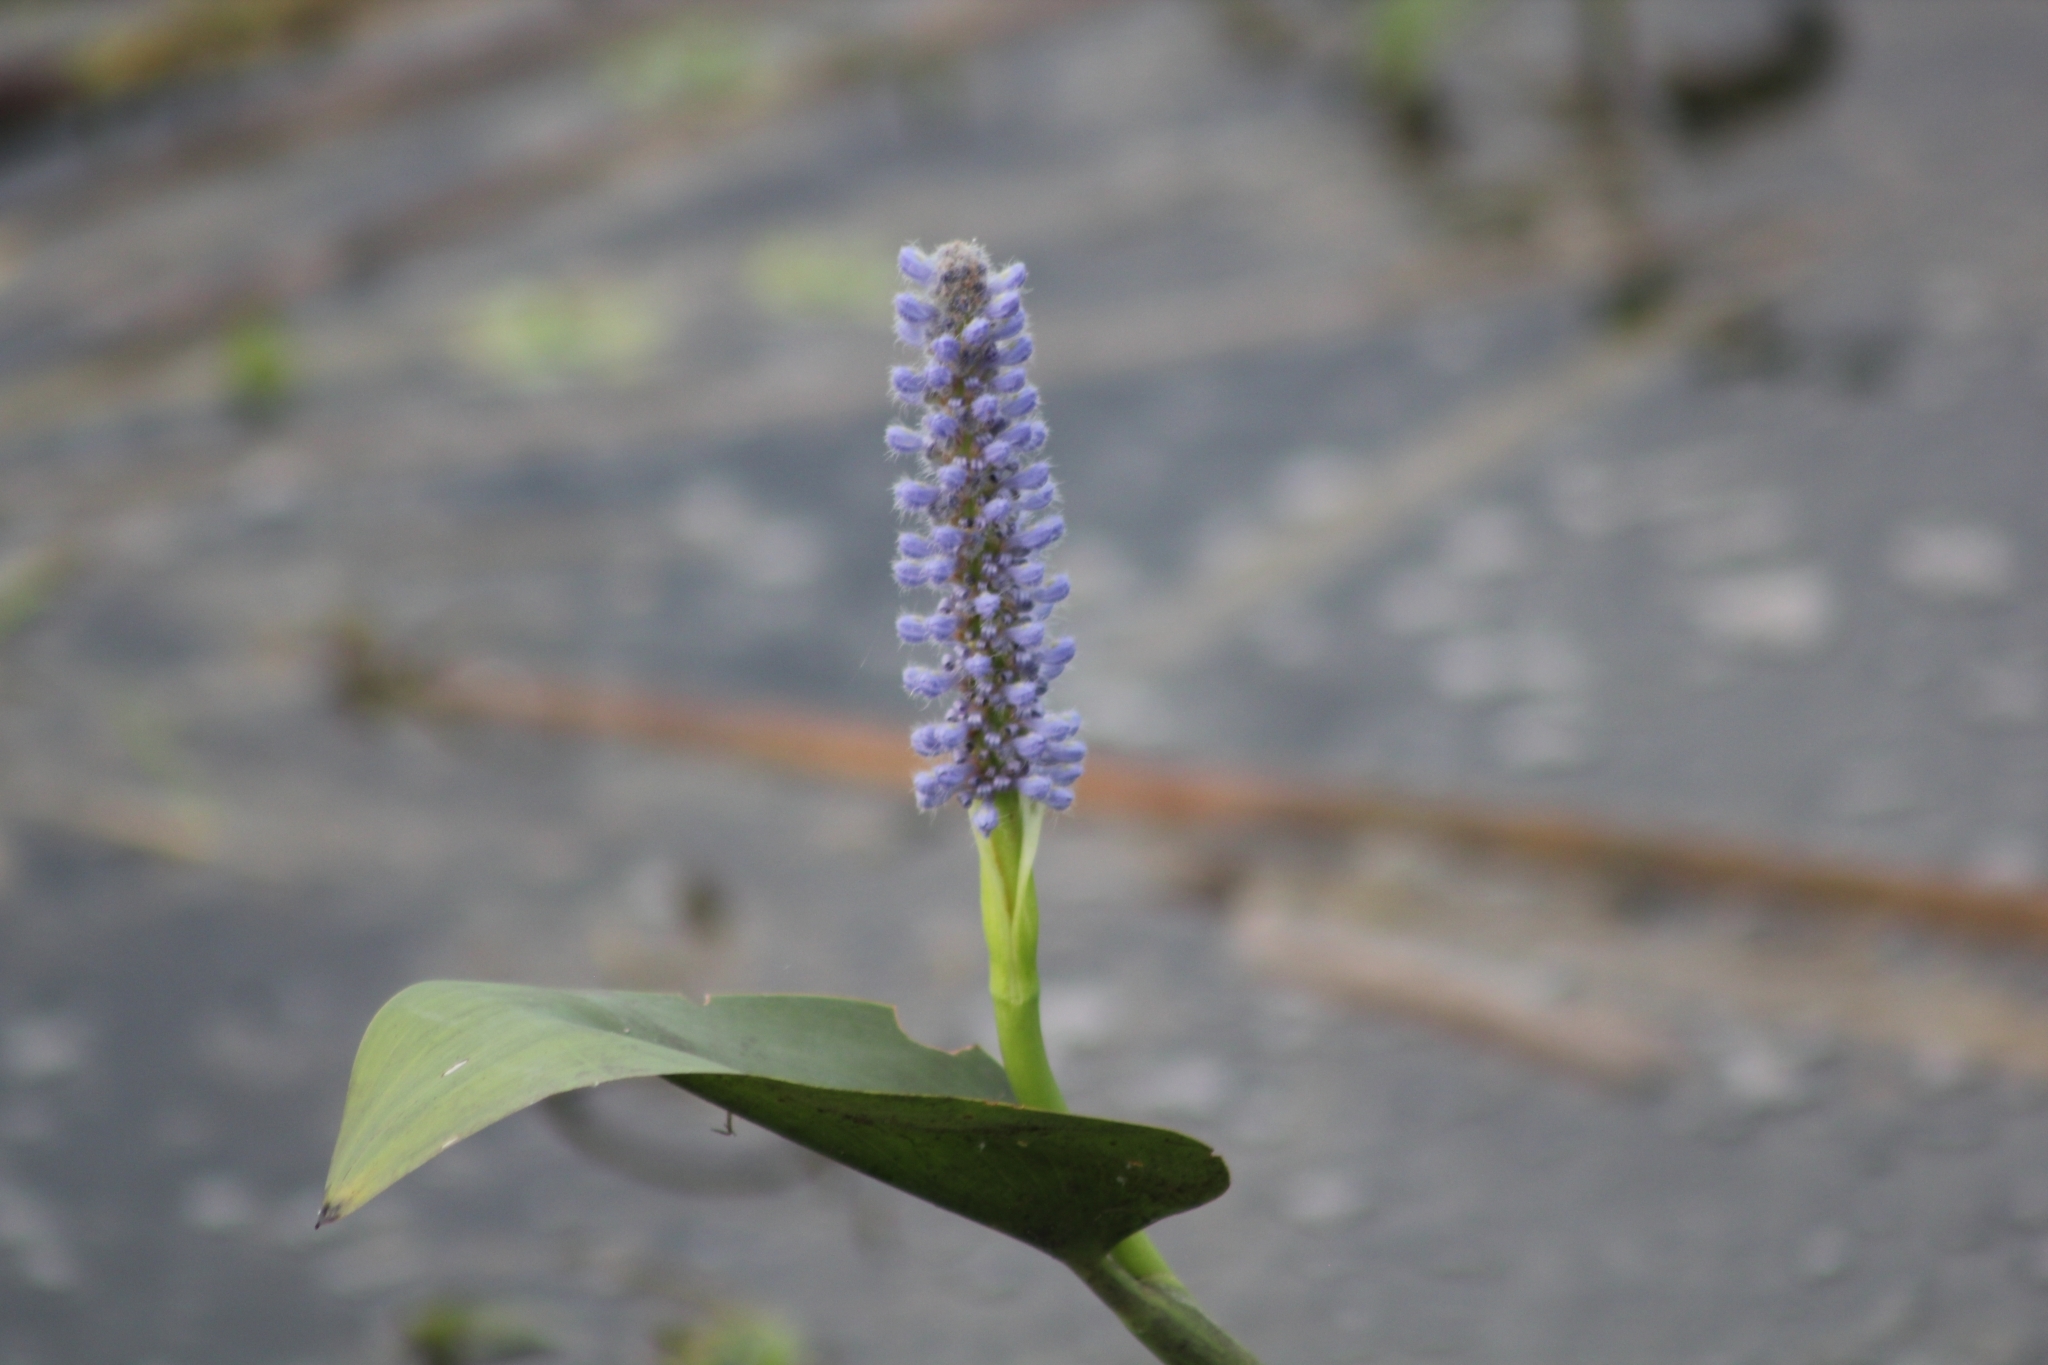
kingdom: Plantae
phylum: Tracheophyta
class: Liliopsida
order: Commelinales
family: Pontederiaceae
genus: Pontederia
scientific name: Pontederia cordata
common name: Pickerelweed
